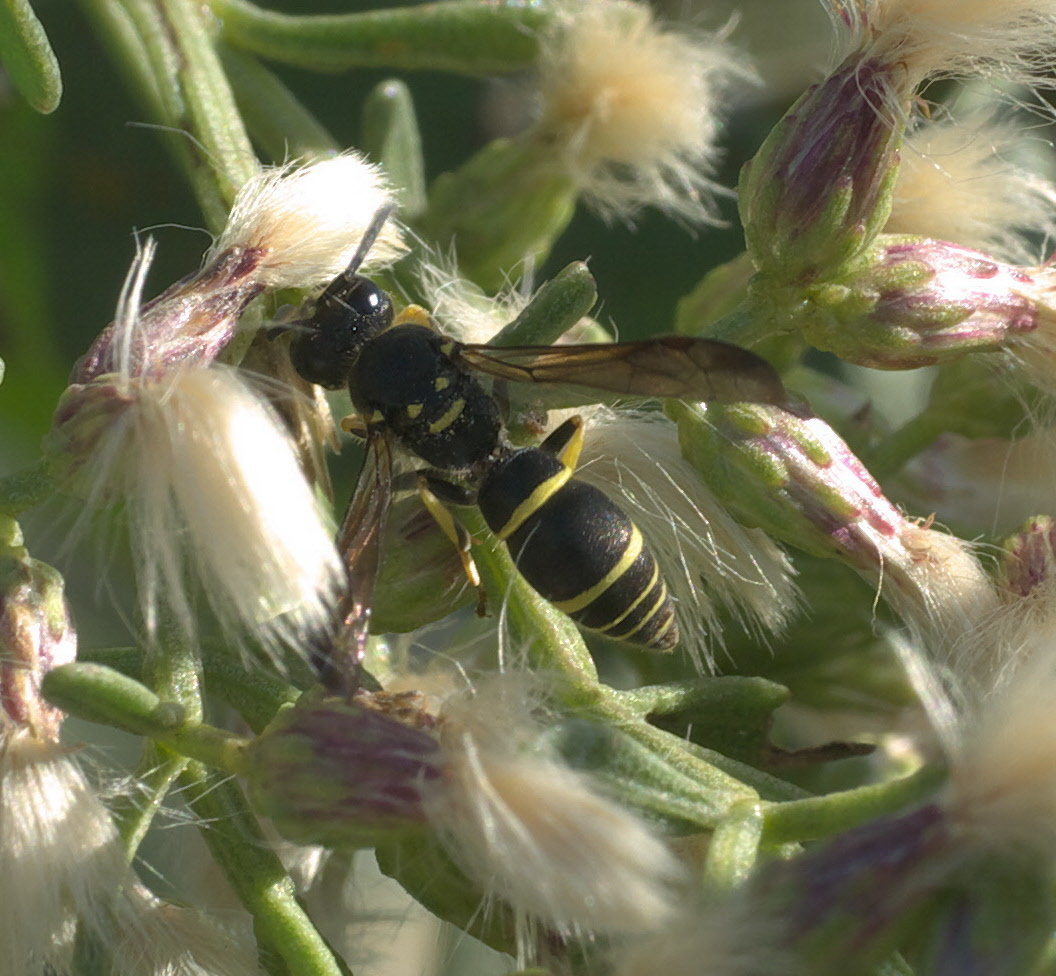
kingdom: Animalia
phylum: Arthropoda
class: Insecta
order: Hymenoptera
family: Vespidae
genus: Ancistrocerus
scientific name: Ancistrocerus adiabatus
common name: Bramble mason wasp
